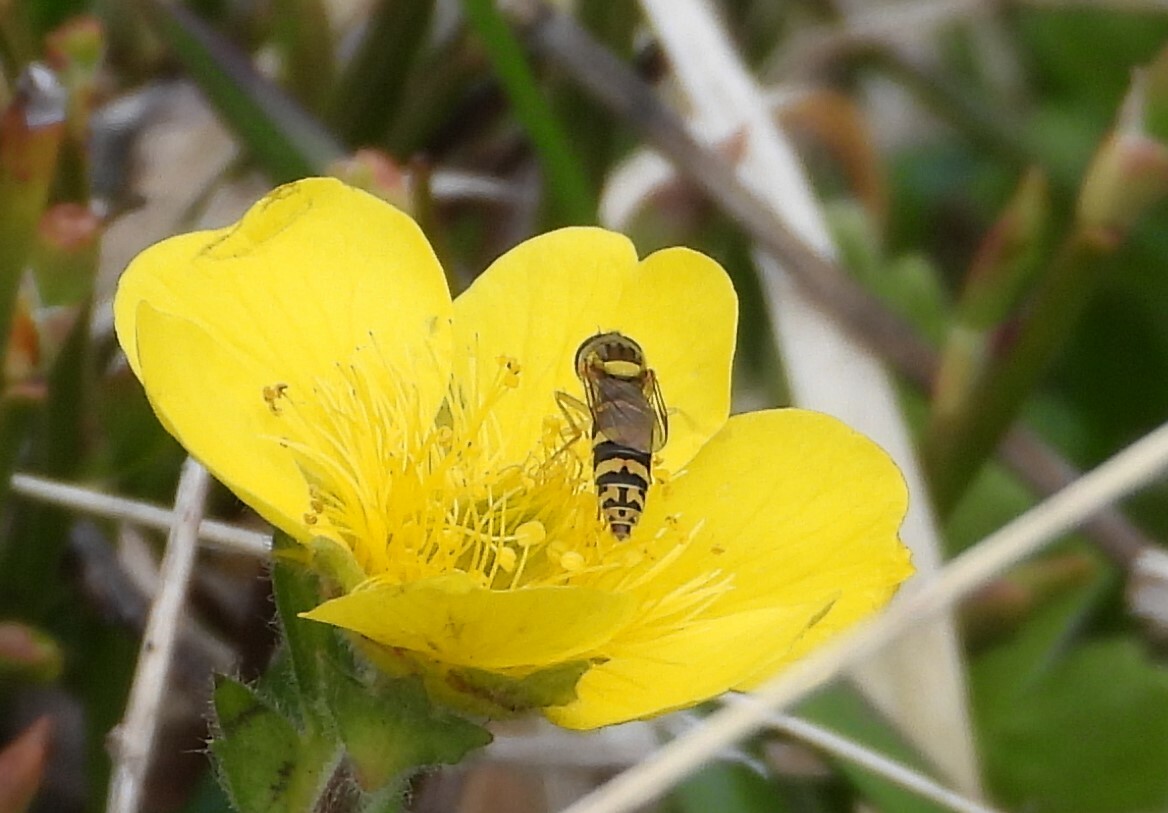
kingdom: Animalia
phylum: Arthropoda
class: Insecta
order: Diptera
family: Syrphidae
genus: Sphaerophoria
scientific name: Sphaerophoria
